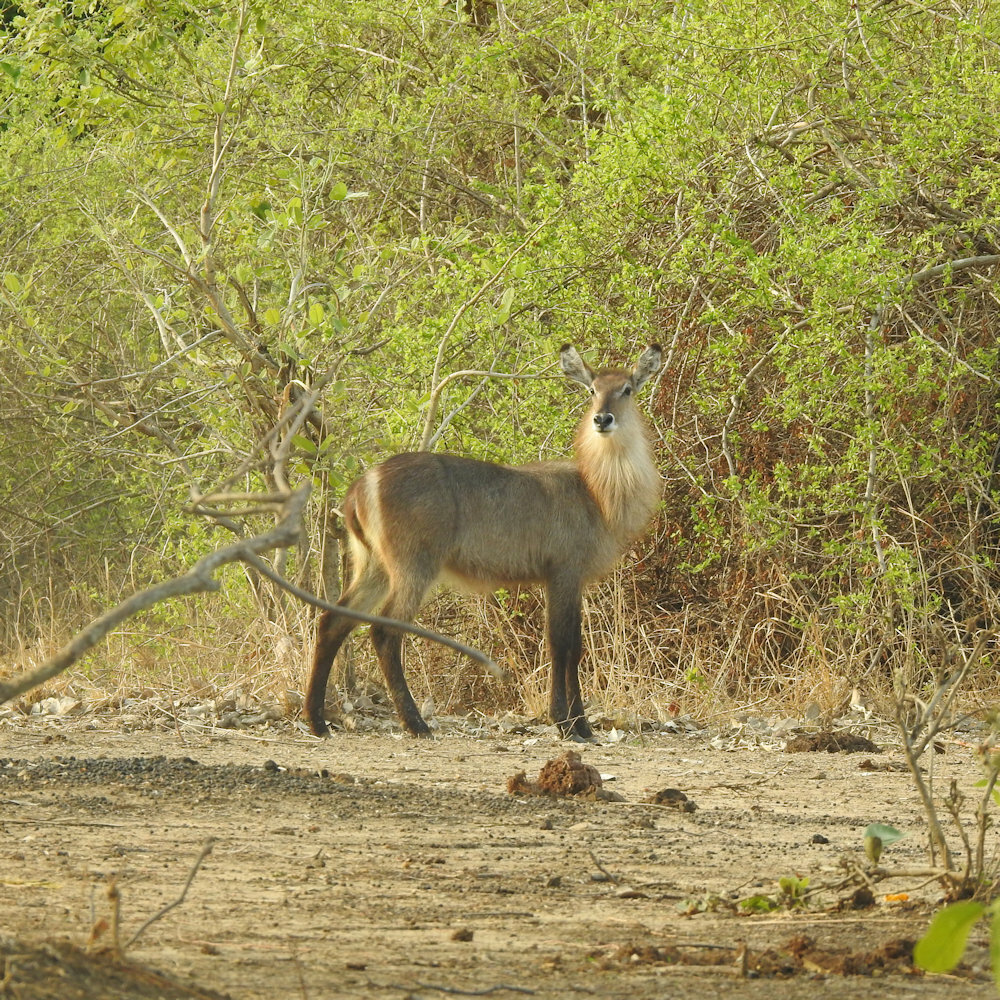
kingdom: Animalia
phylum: Chordata
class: Mammalia
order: Artiodactyla
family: Bovidae
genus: Kobus
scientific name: Kobus ellipsiprymnus
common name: Waterbuck
